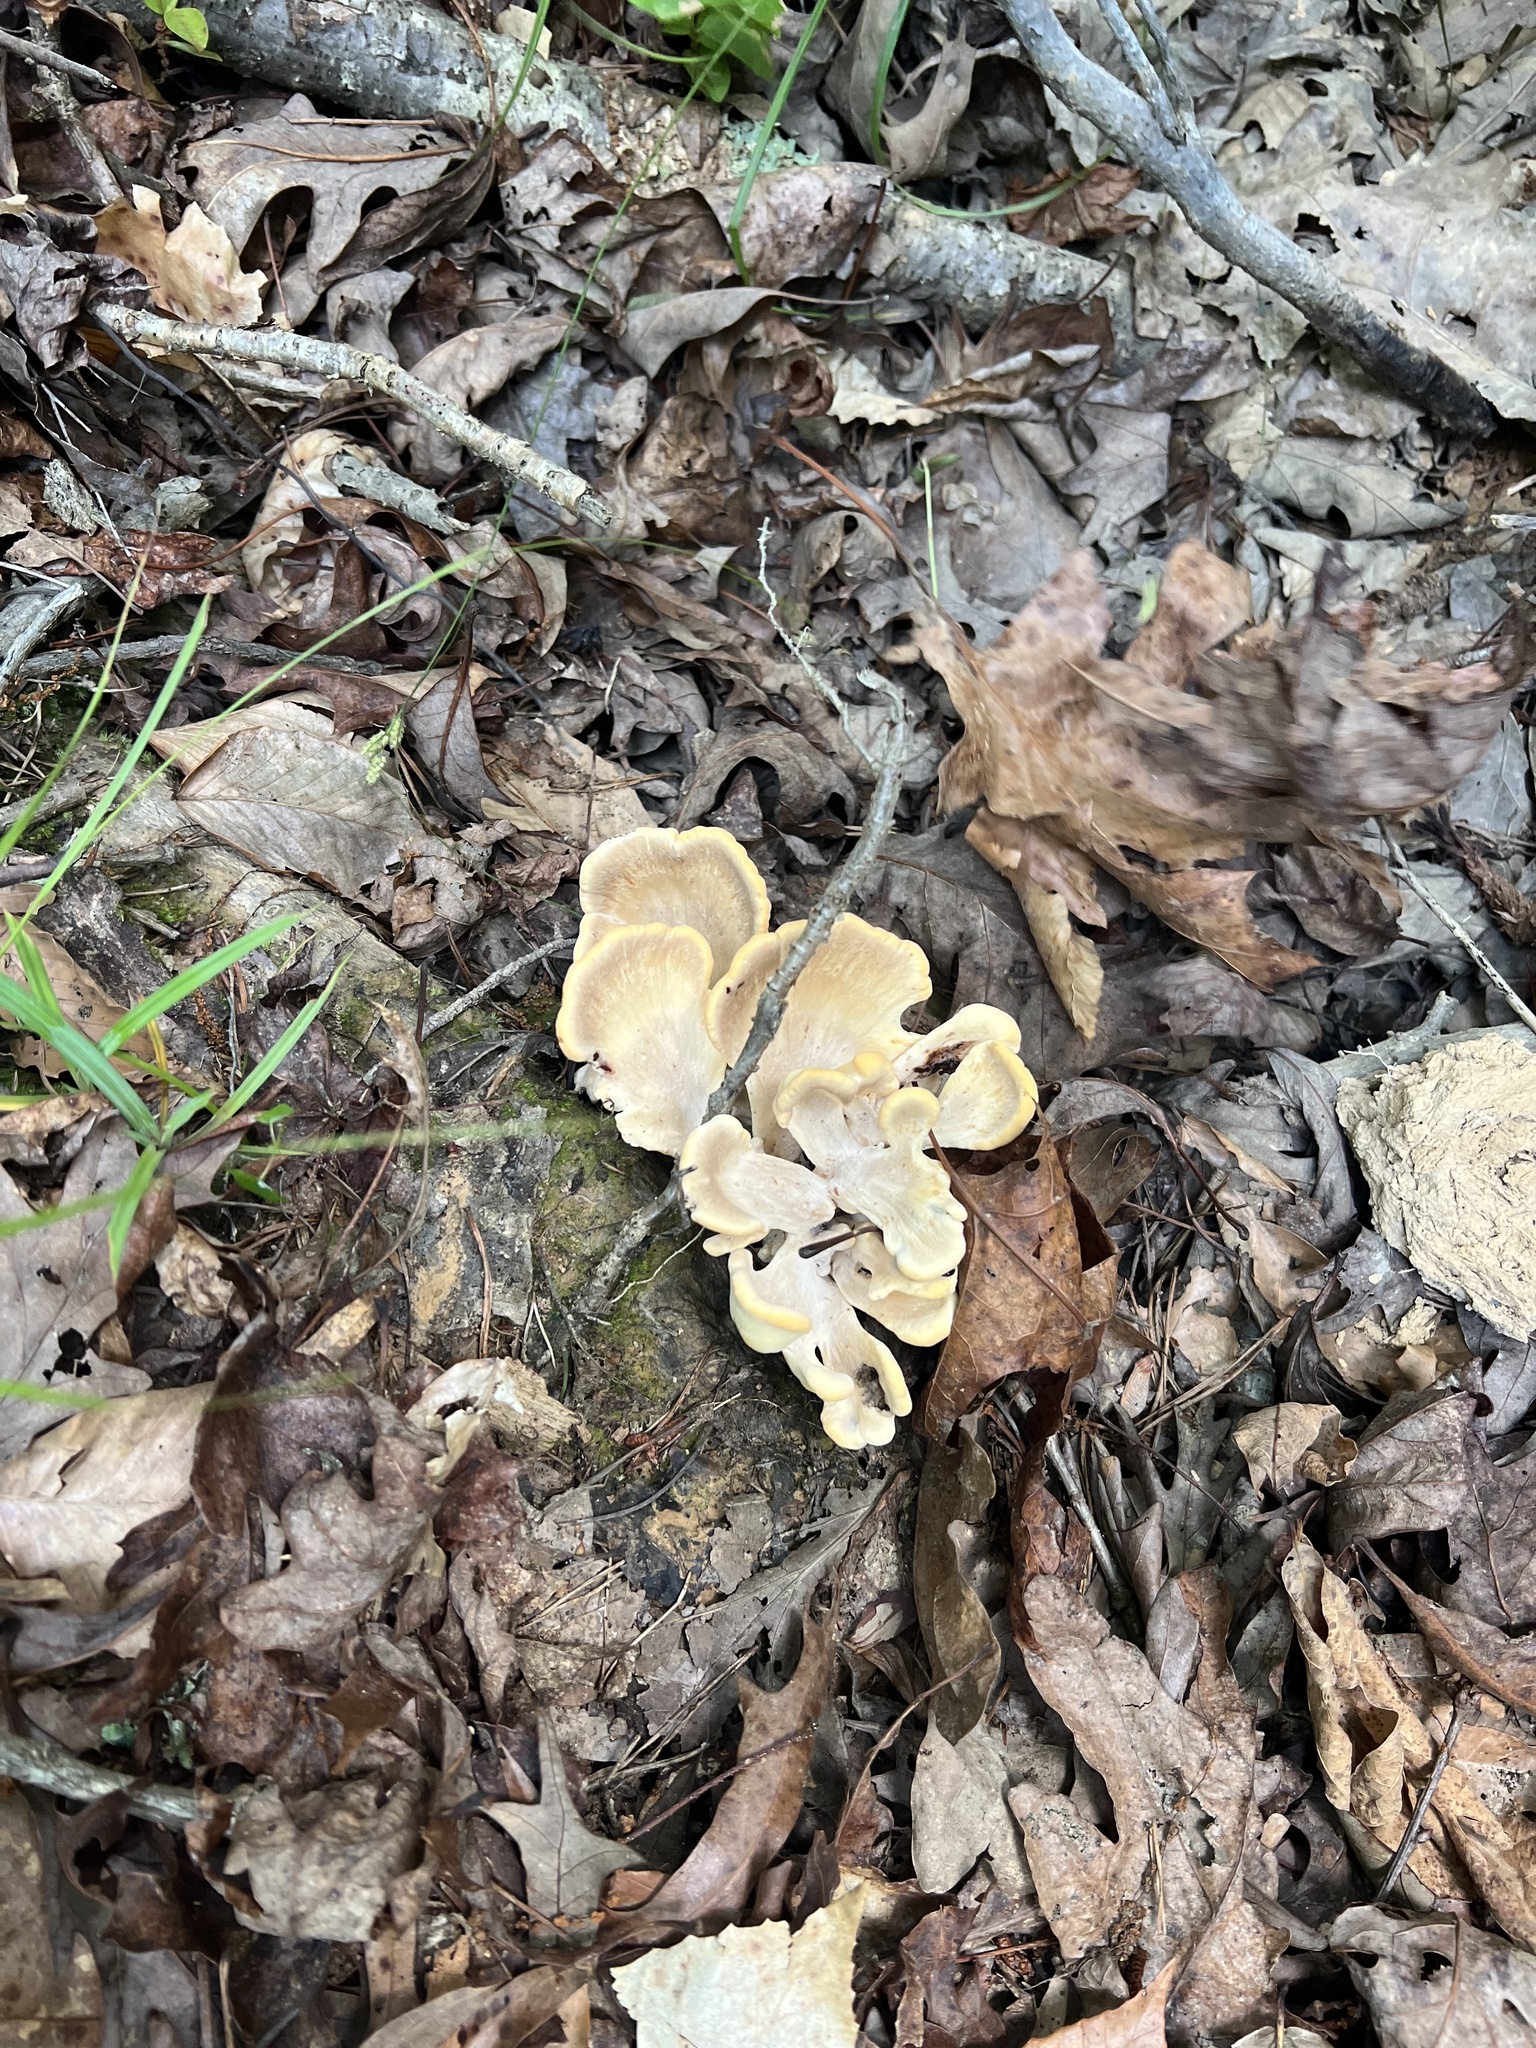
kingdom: Fungi
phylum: Basidiomycota
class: Agaricomycetes
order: Polyporales
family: Meripilaceae
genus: Meripilus
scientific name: Meripilus sumstinei
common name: Black-staining polypore
